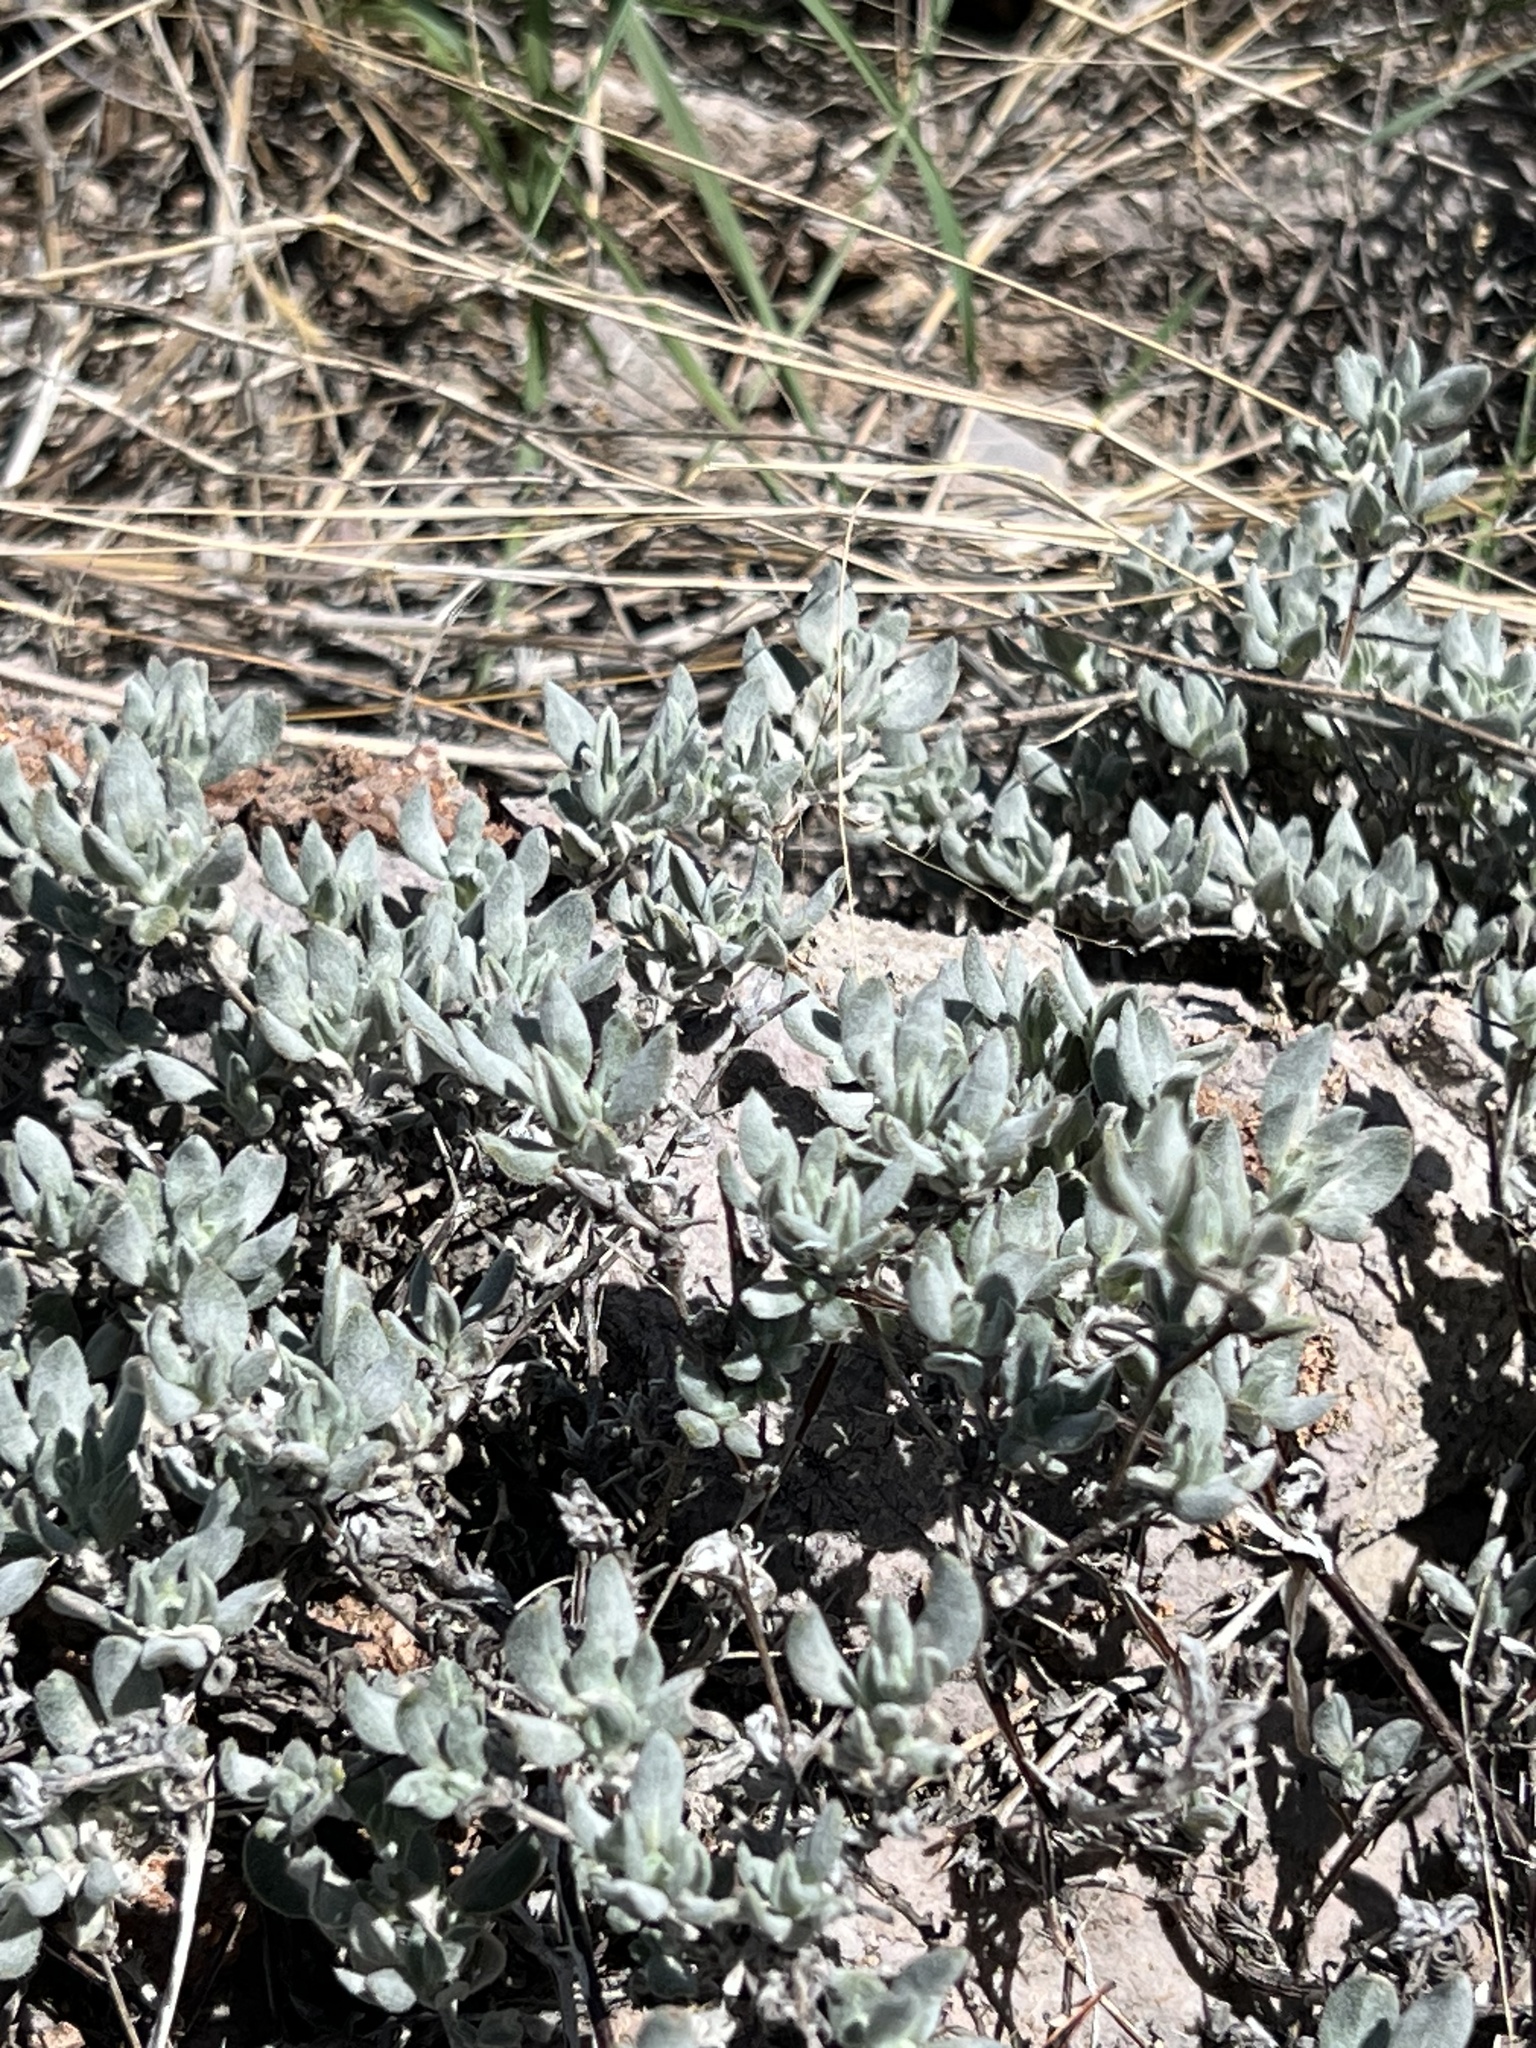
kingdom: Plantae
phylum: Tracheophyta
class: Magnoliopsida
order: Boraginales
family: Ehretiaceae
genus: Tiquilia
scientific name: Tiquilia canescens
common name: Hairy tiquilia
